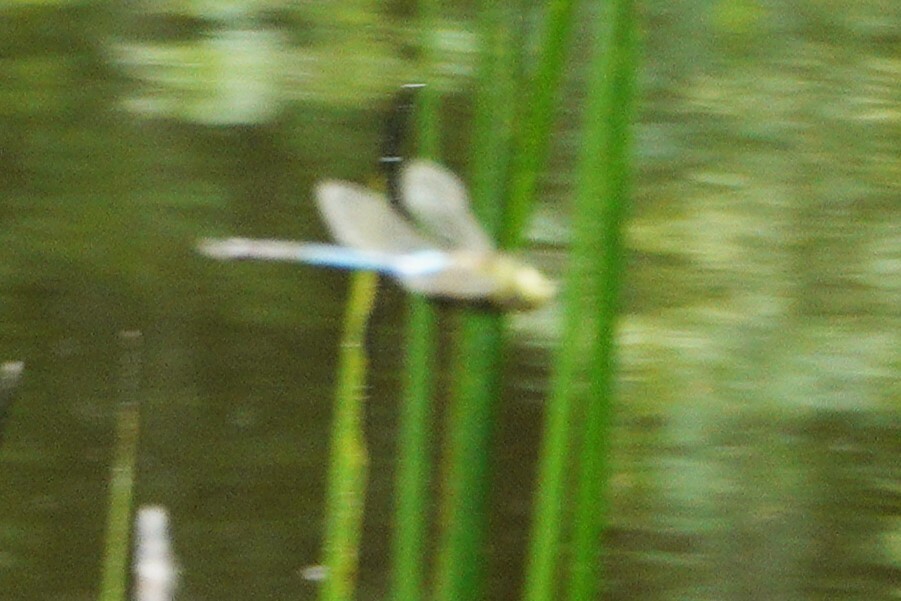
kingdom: Animalia
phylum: Arthropoda
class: Insecta
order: Odonata
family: Aeshnidae
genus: Anax
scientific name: Anax junius
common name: Common green darner
